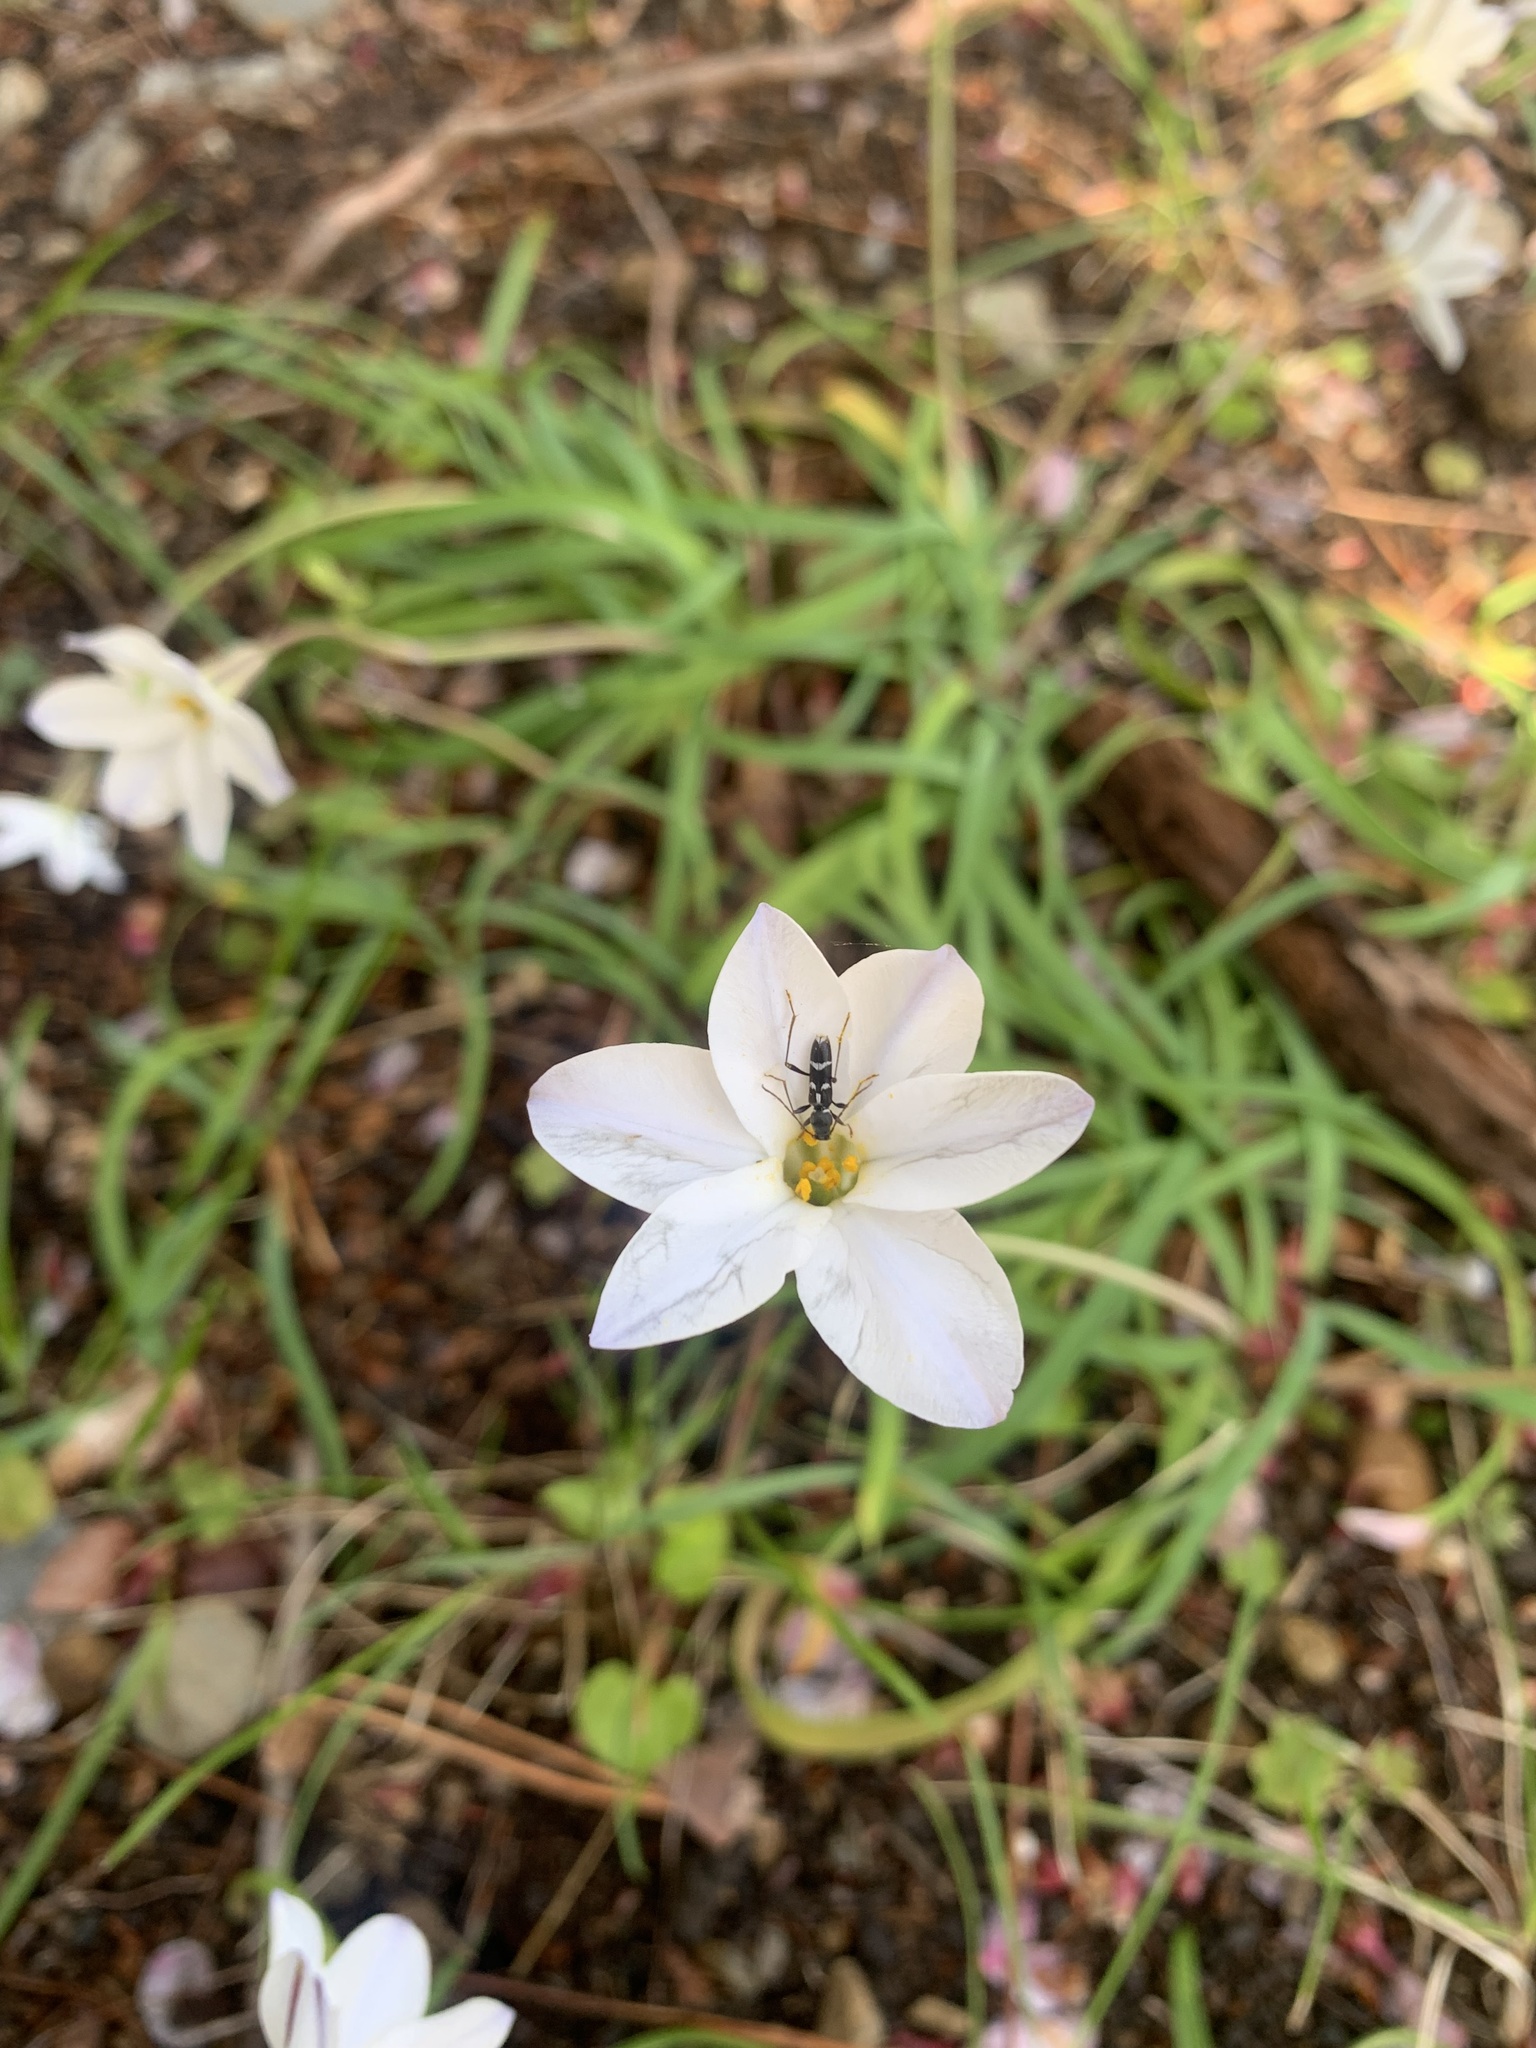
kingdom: Animalia
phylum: Arthropoda
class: Insecta
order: Coleoptera
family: Cerambycidae
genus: Rhaphuma
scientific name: Rhaphuma diminuta
